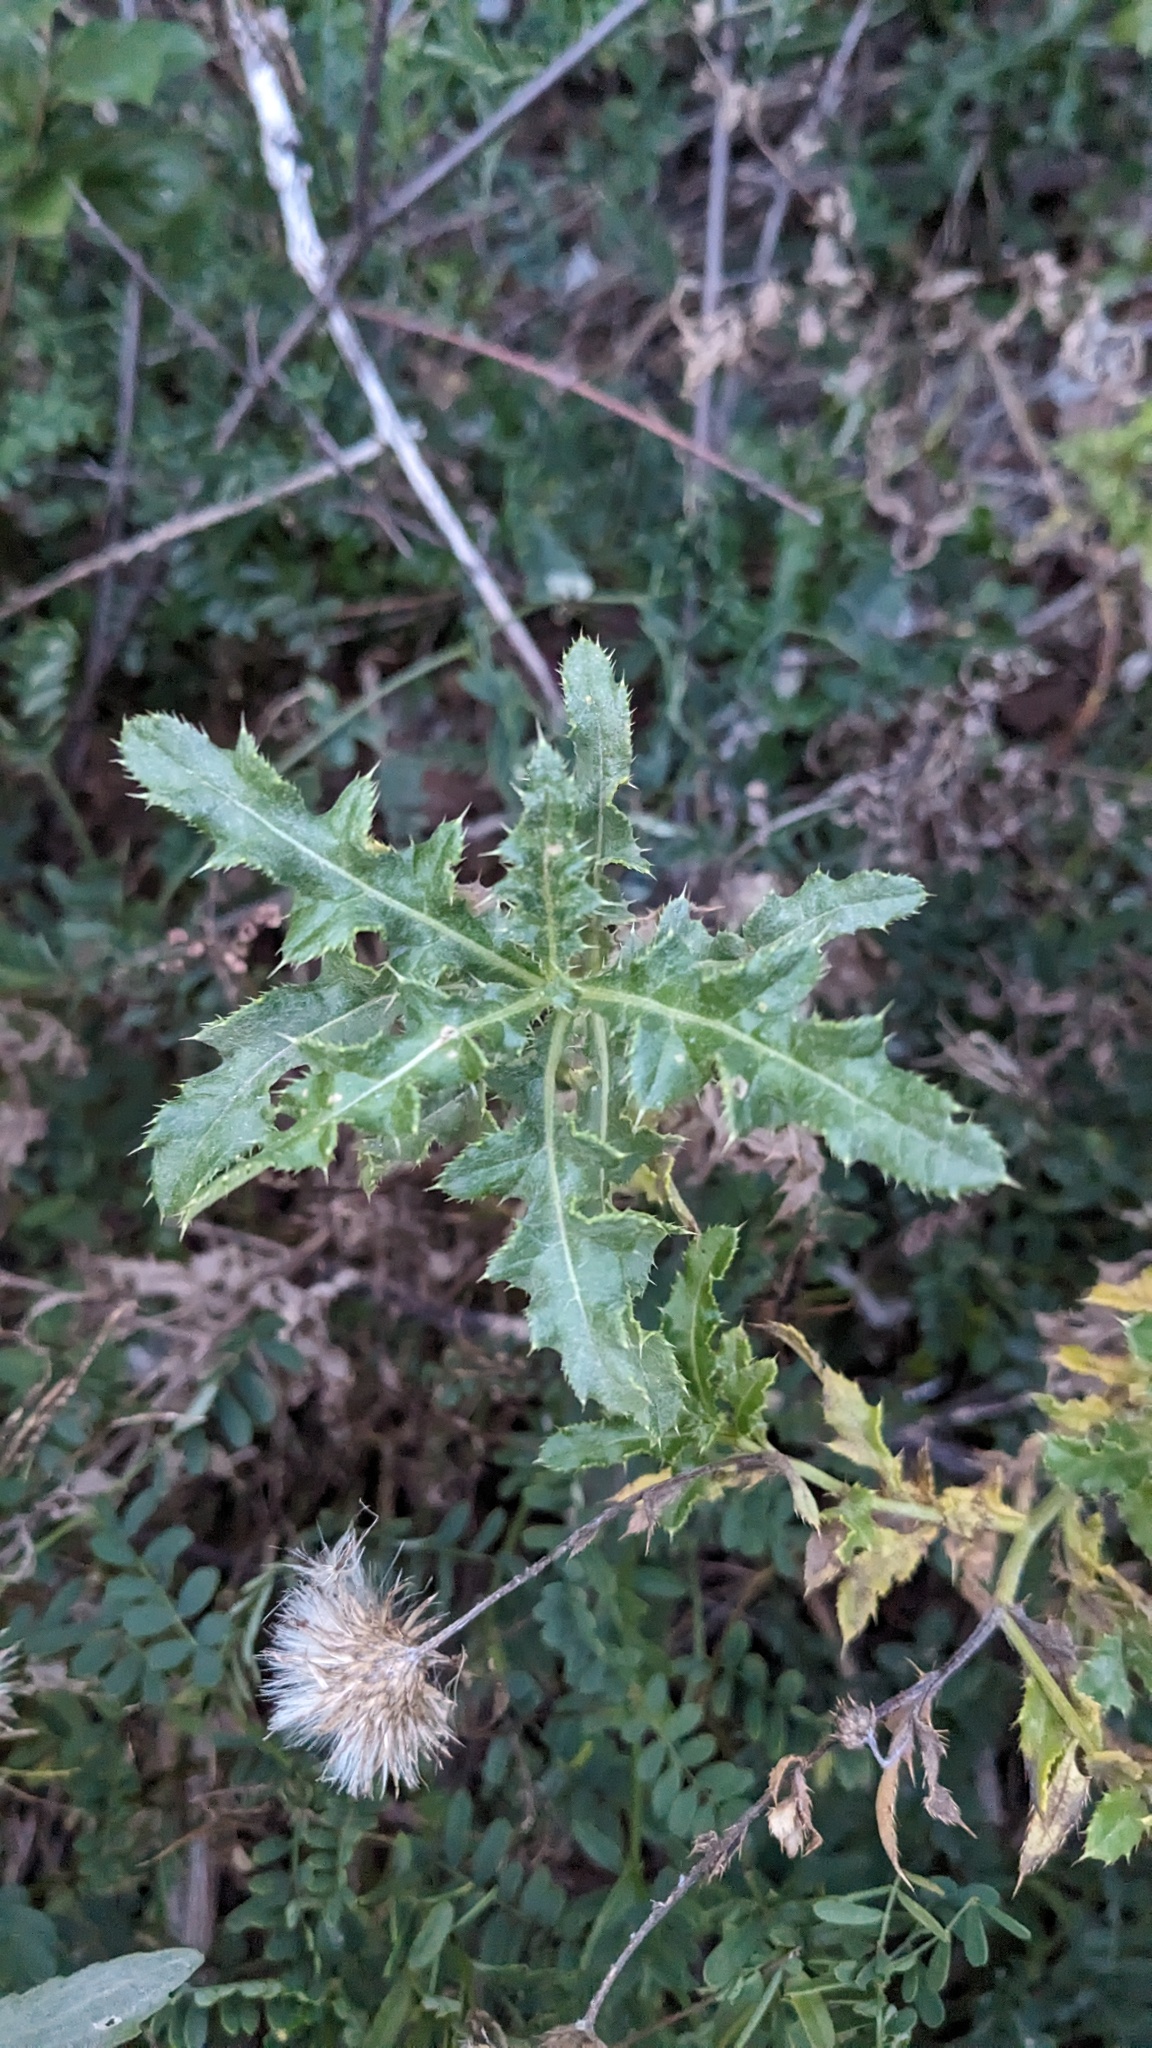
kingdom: Plantae
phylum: Tracheophyta
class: Magnoliopsida
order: Asterales
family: Asteraceae
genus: Cirsium
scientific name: Cirsium arvense
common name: Creeping thistle
